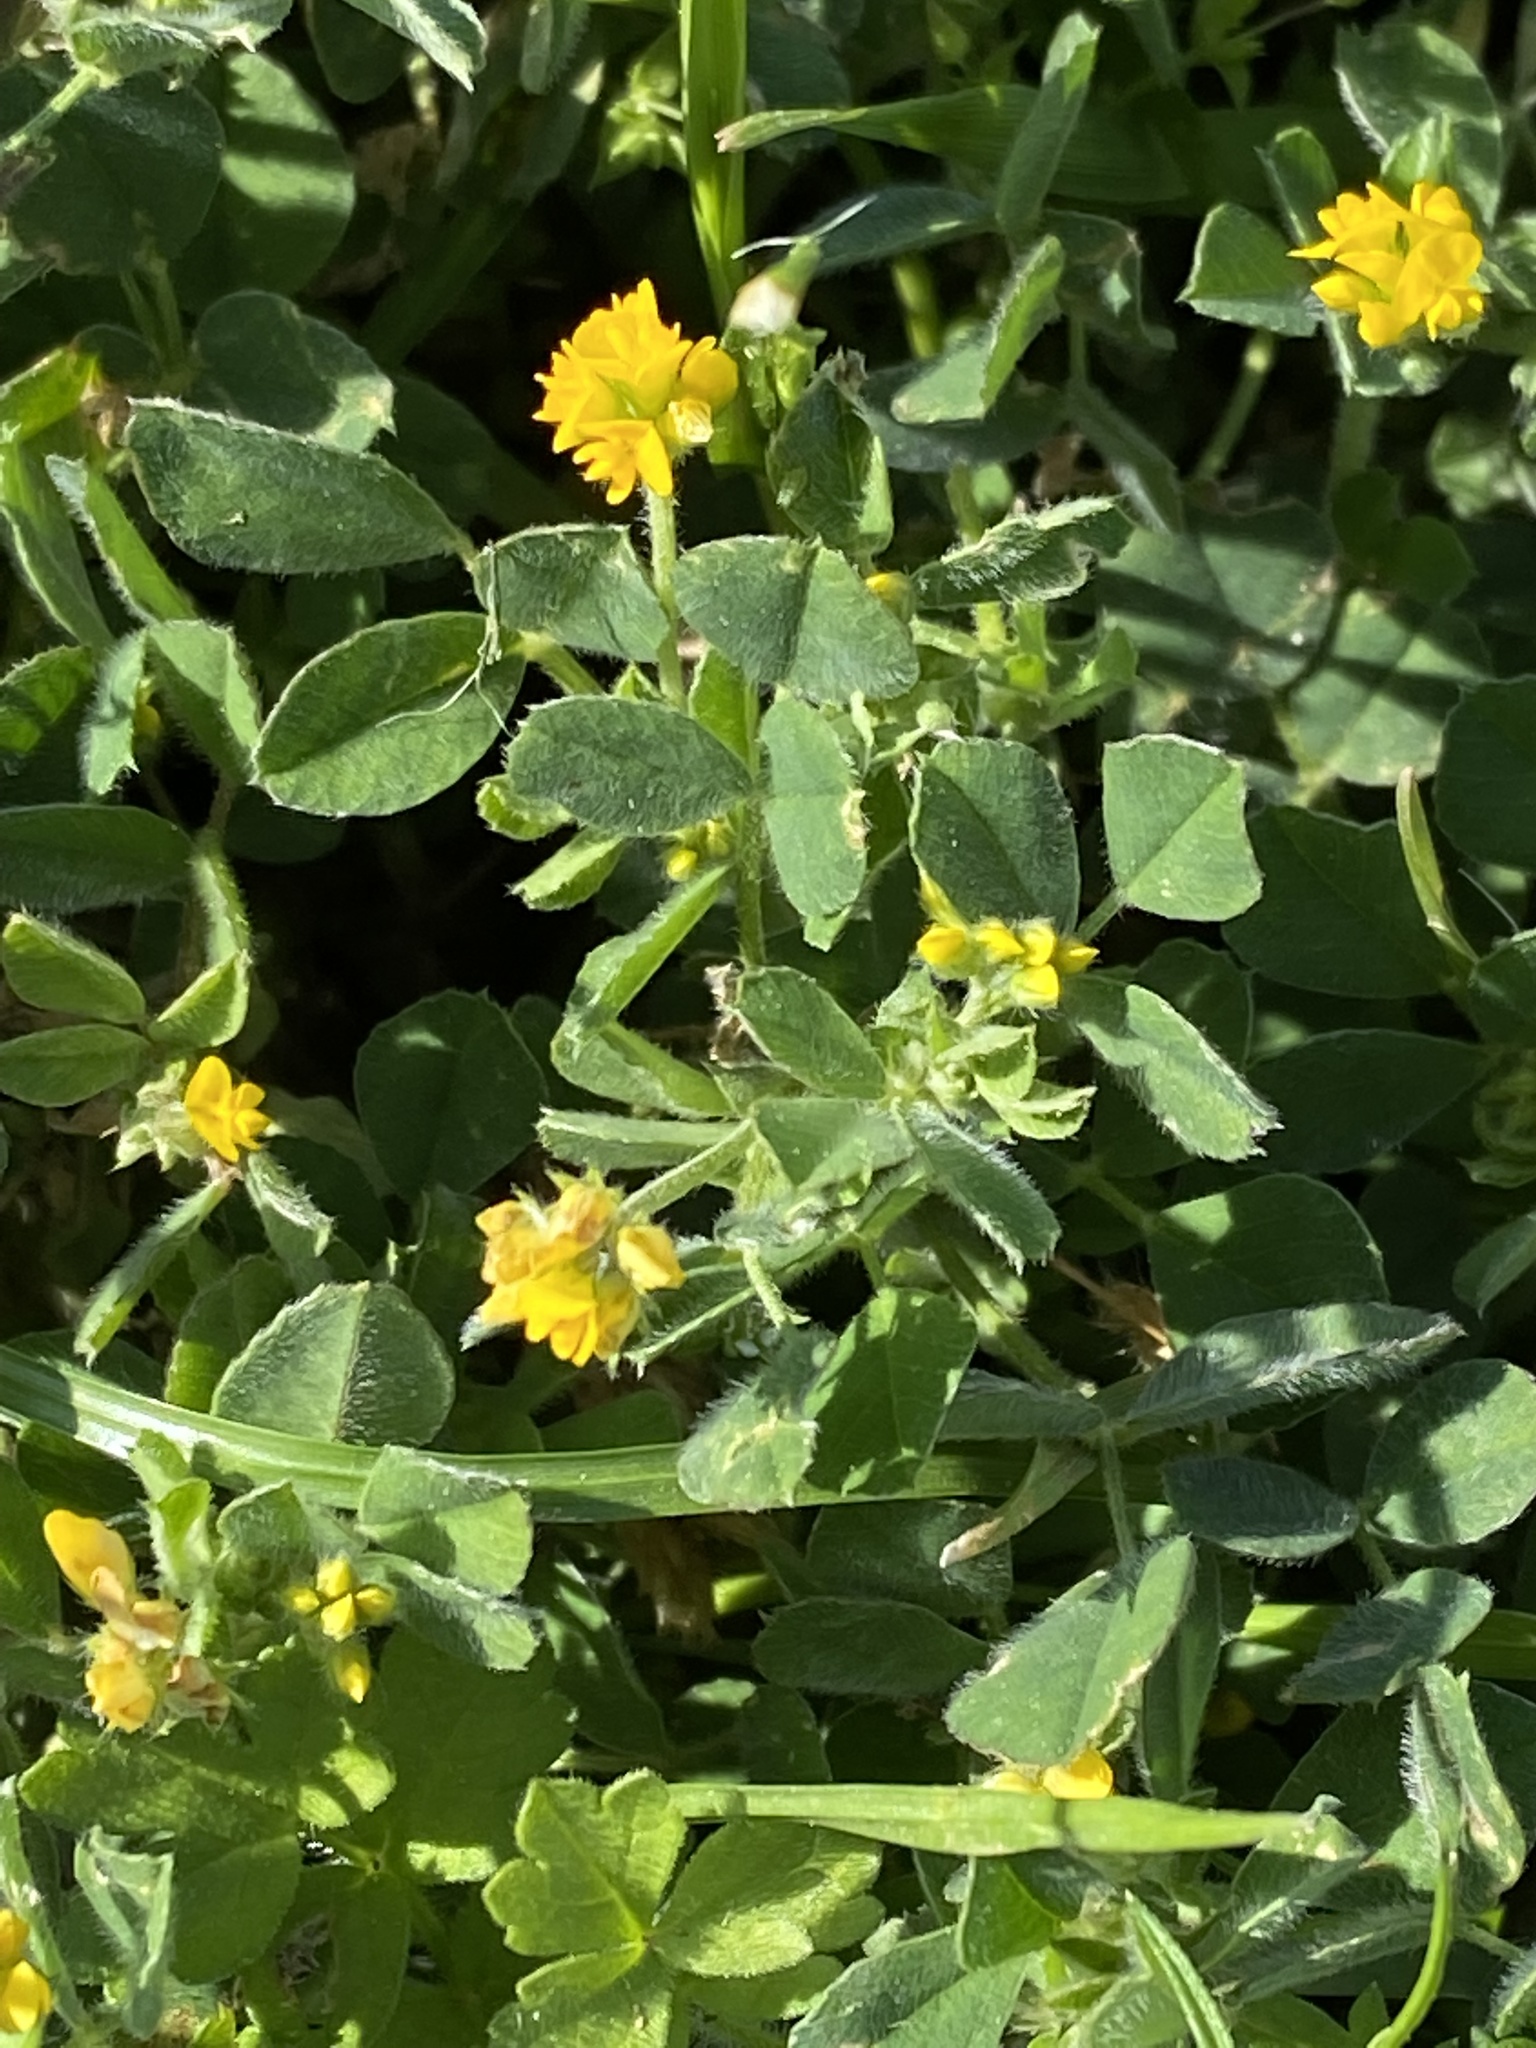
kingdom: Plantae
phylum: Tracheophyta
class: Magnoliopsida
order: Fabales
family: Fabaceae
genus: Medicago
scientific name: Medicago orbicularis
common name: Button medick
